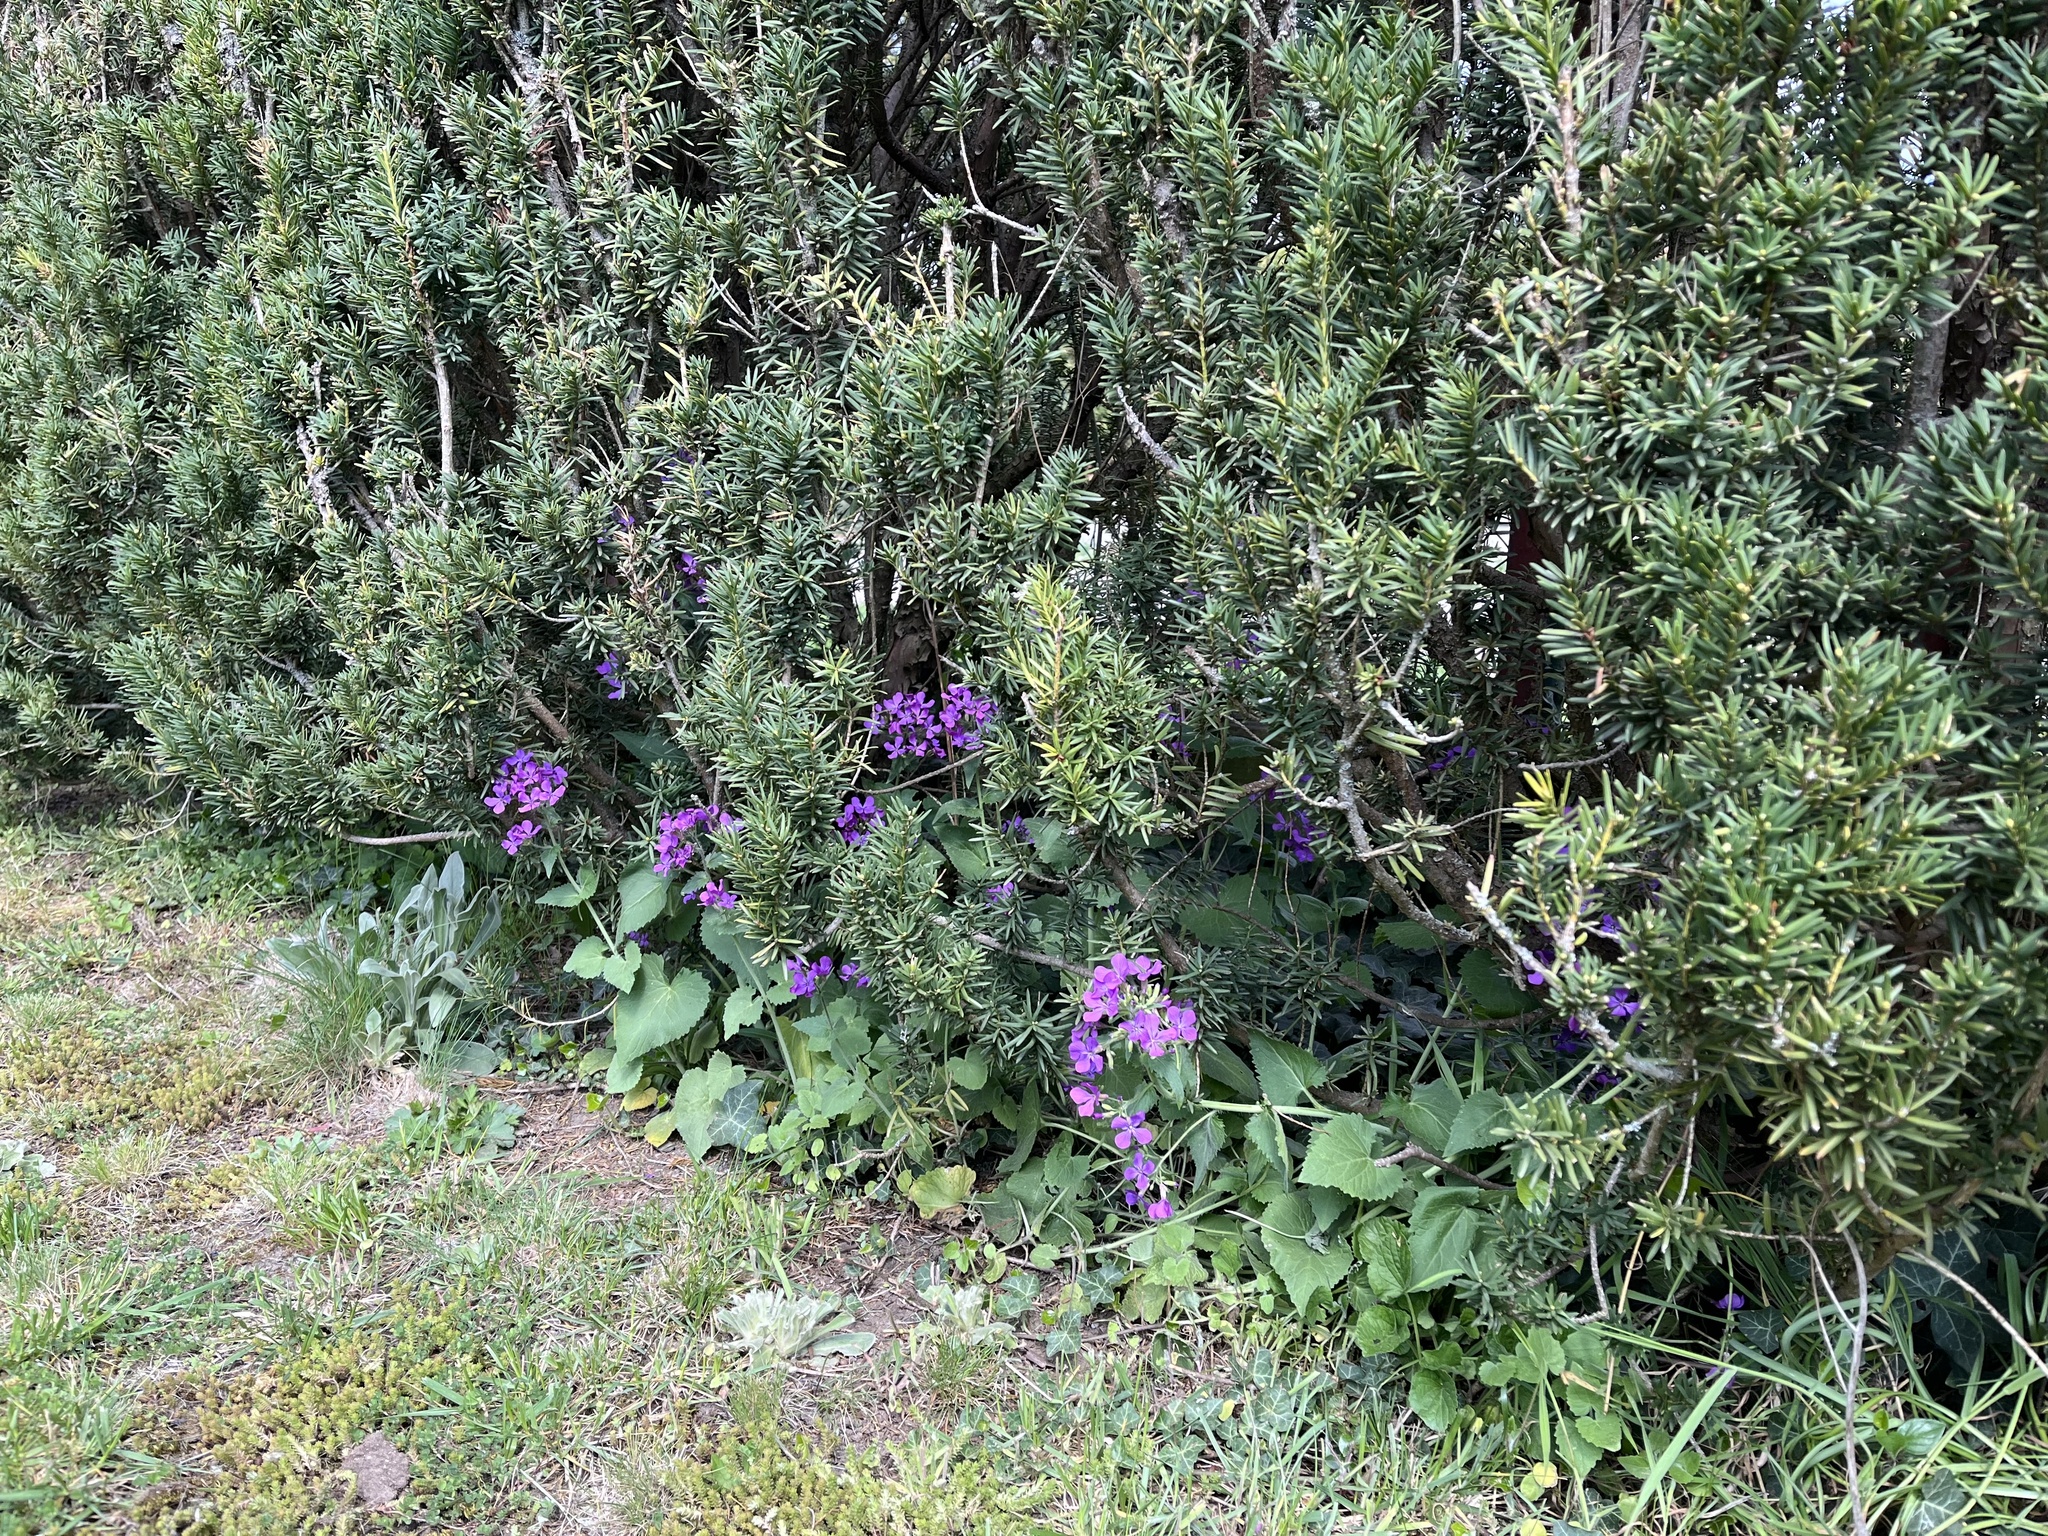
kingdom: Plantae
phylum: Tracheophyta
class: Magnoliopsida
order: Brassicales
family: Brassicaceae
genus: Lunaria
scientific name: Lunaria annua
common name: Honesty
